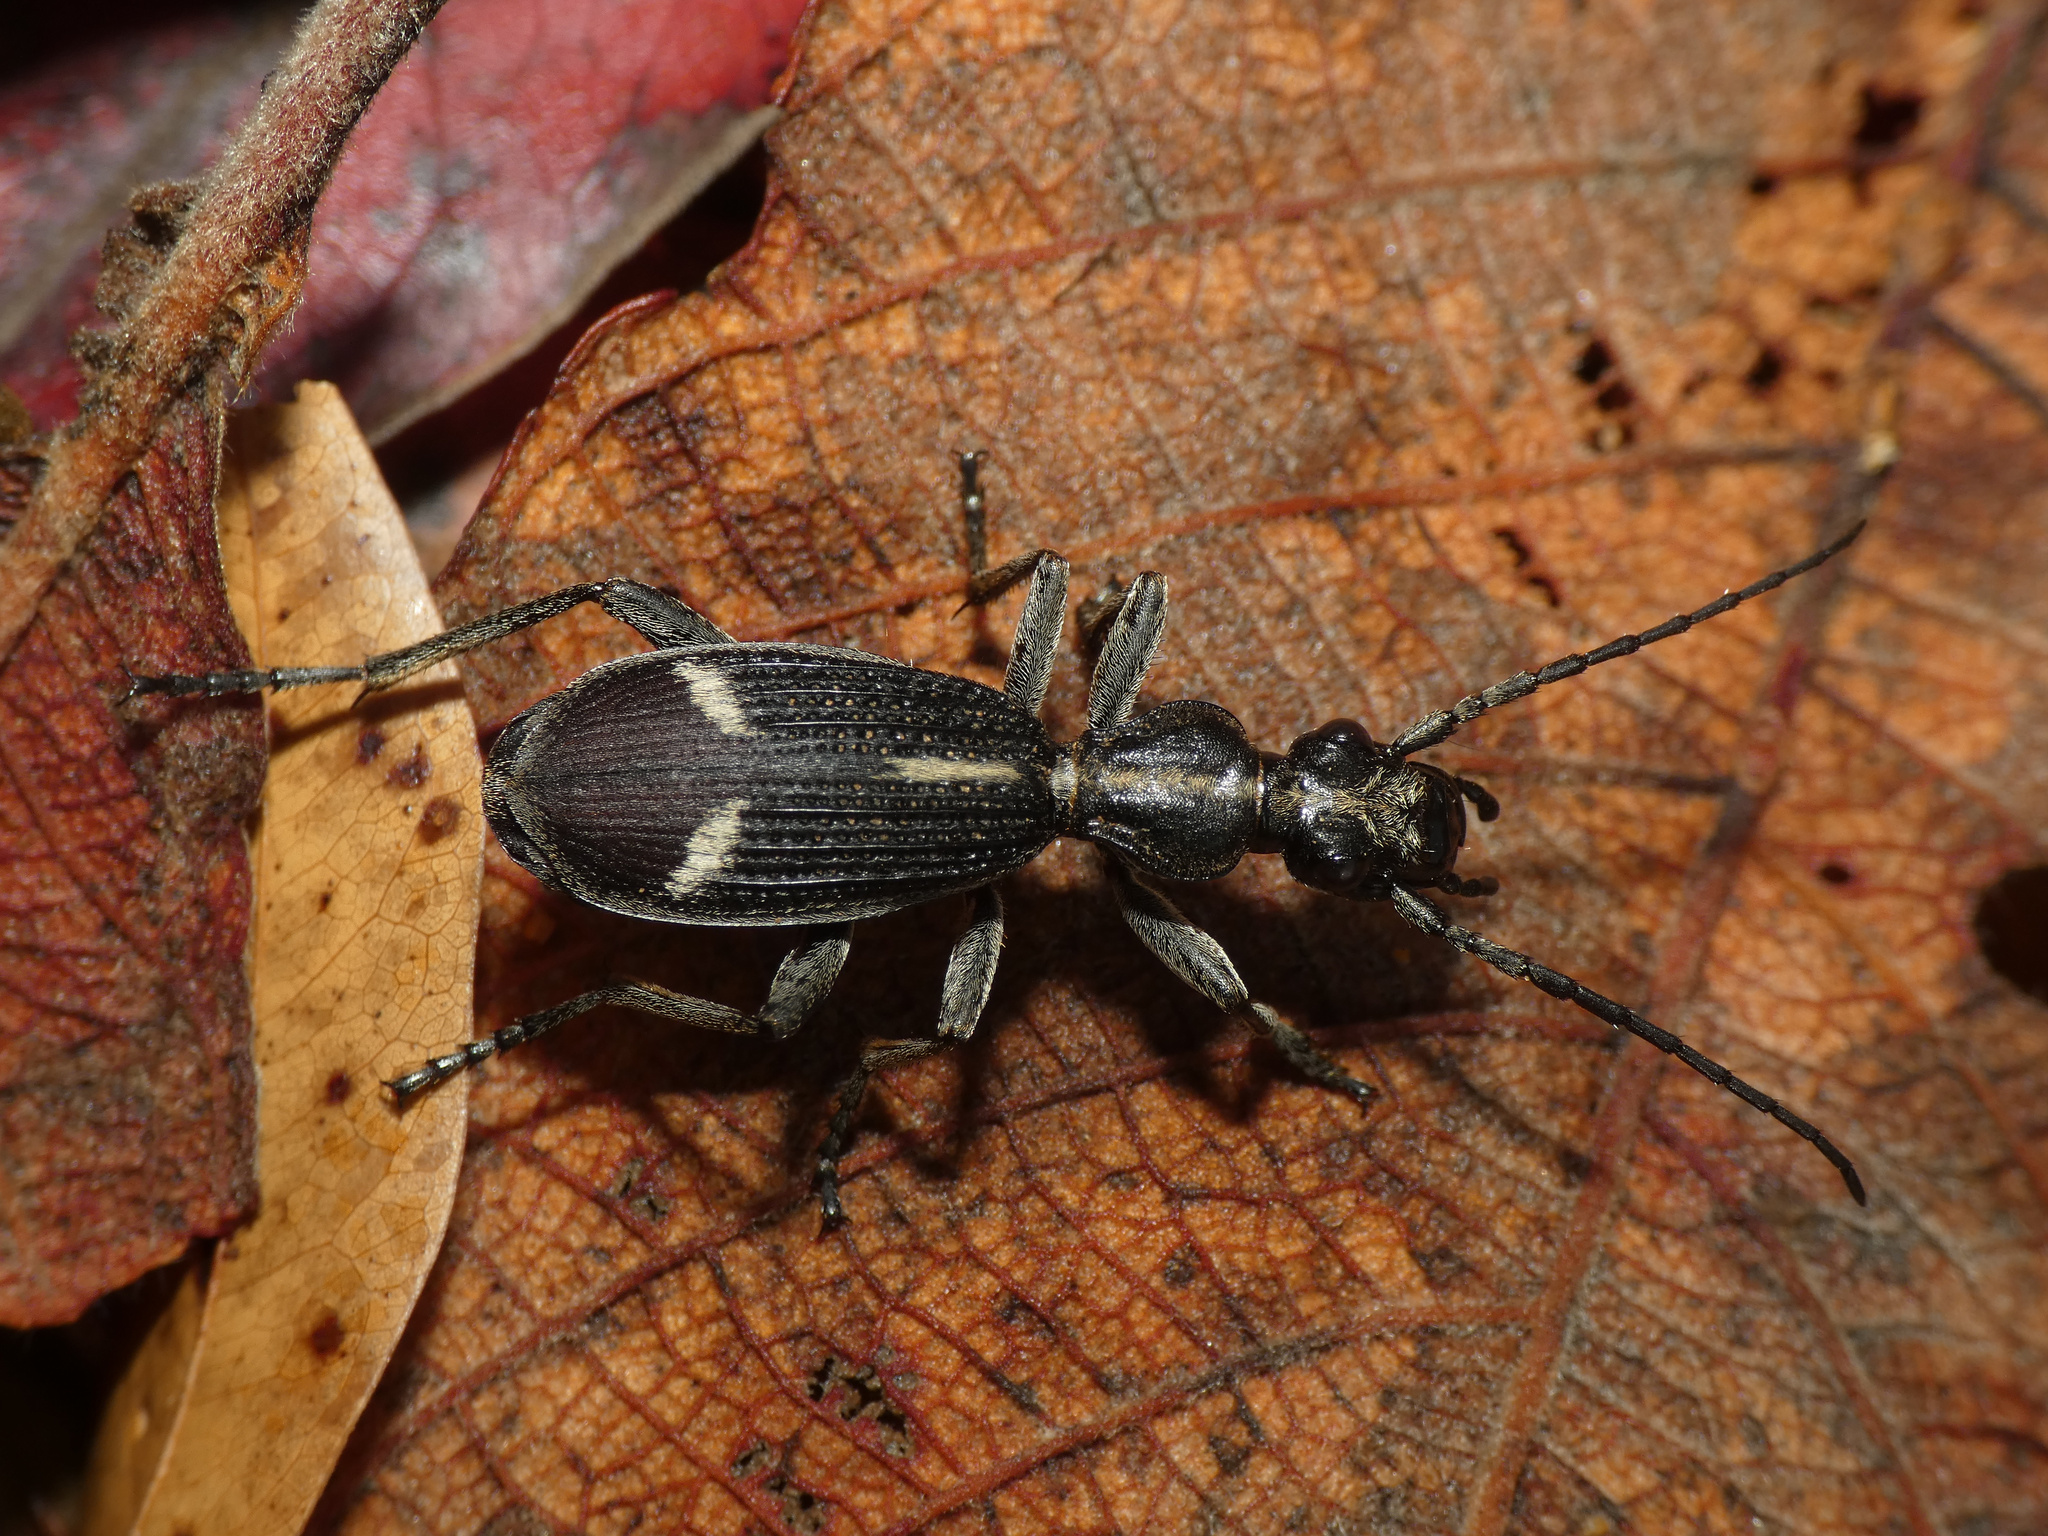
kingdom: Animalia
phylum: Arthropoda
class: Insecta
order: Coleoptera
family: Carabidae
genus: Cypholoba
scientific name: Cypholoba graphipteroides
